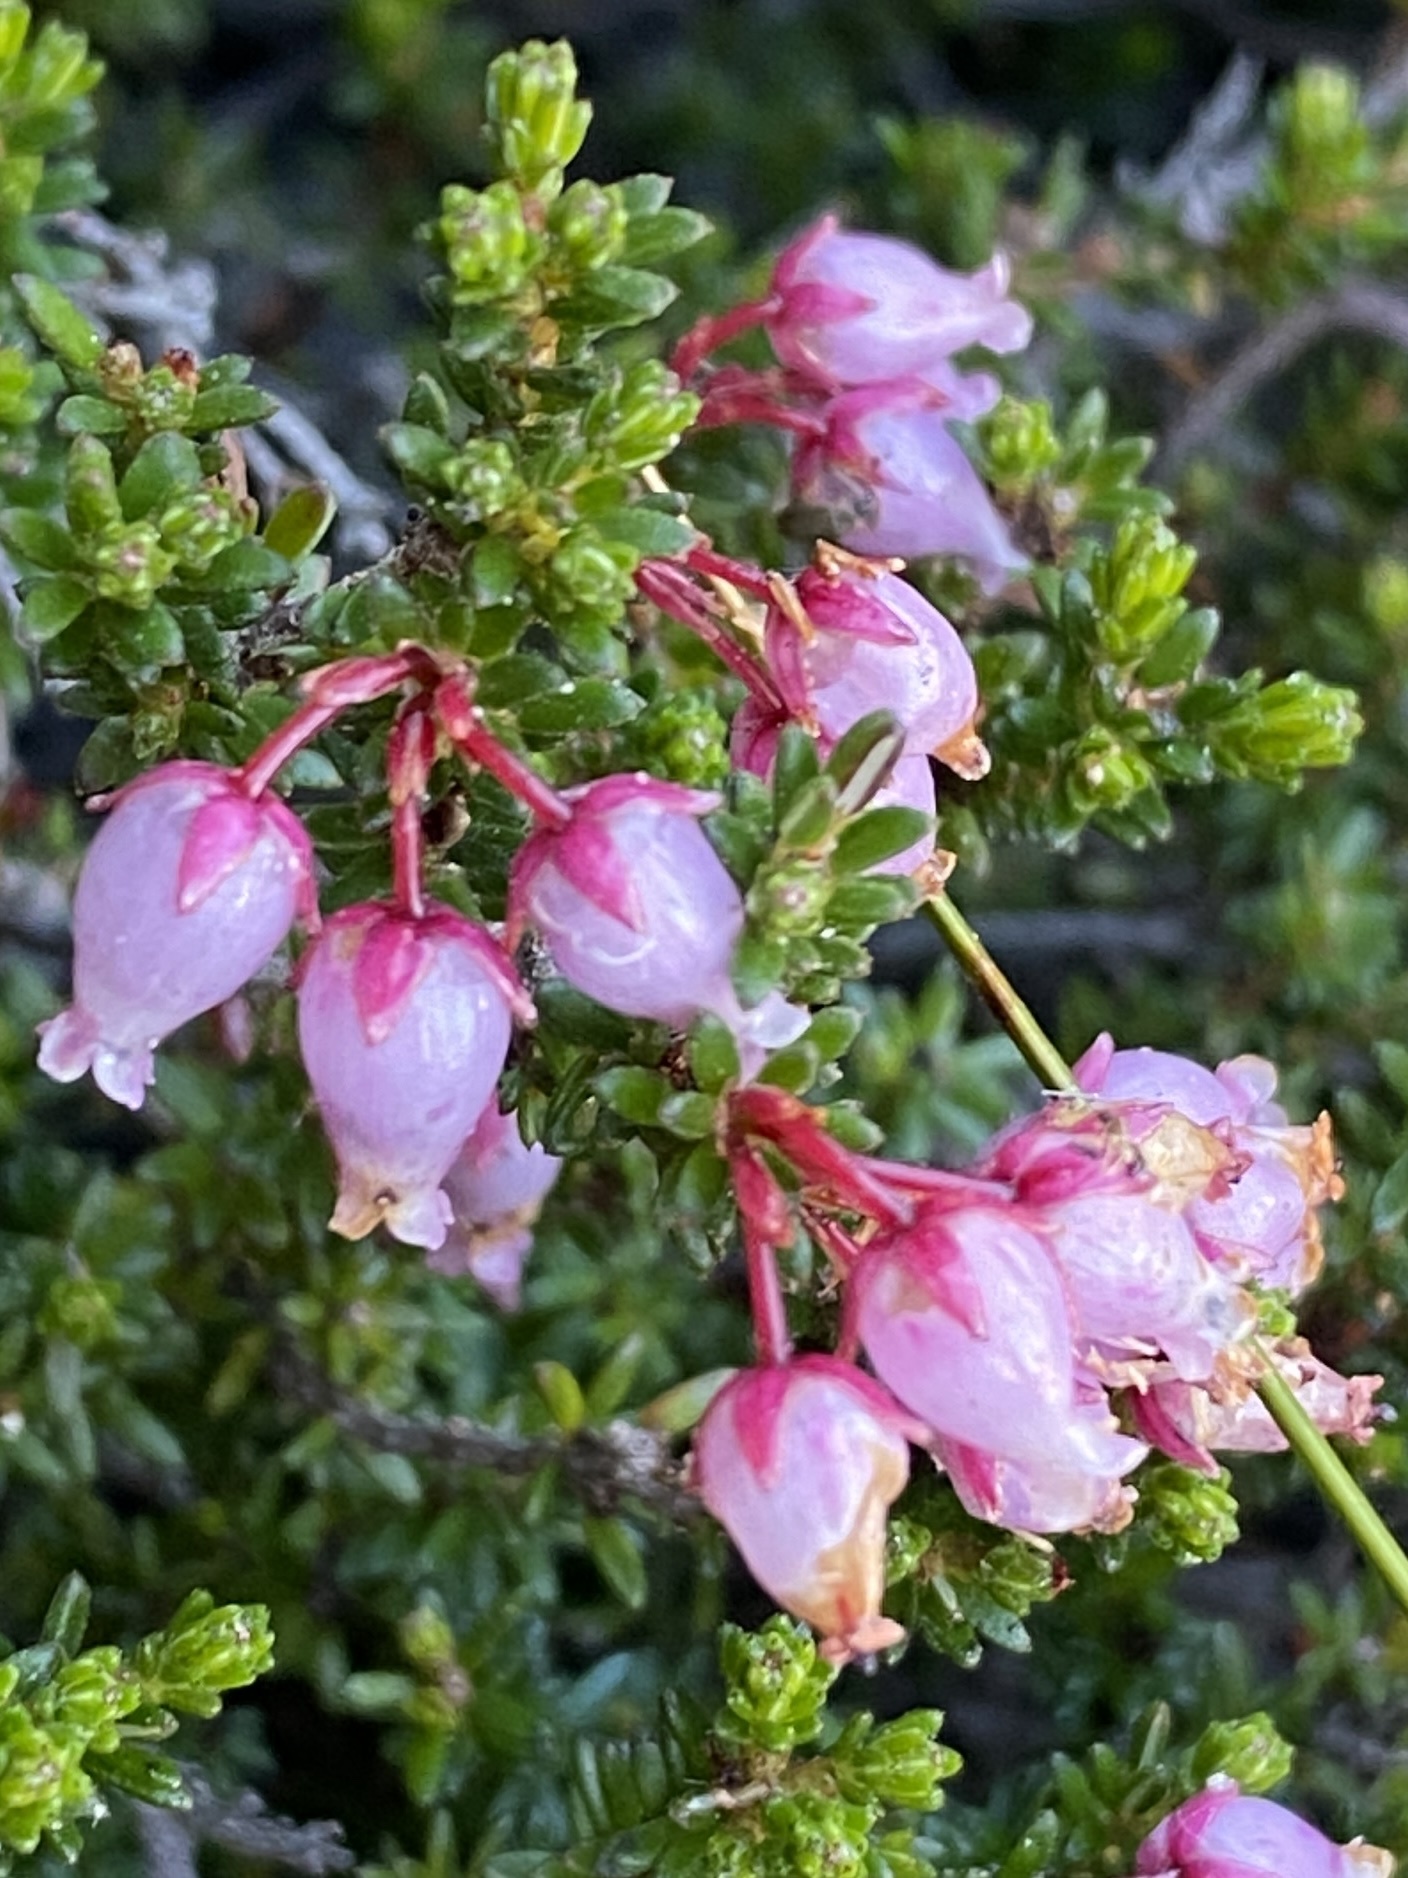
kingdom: Plantae
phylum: Tracheophyta
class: Magnoliopsida
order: Ericales
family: Ericaceae
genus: Erica
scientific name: Erica nubigena
